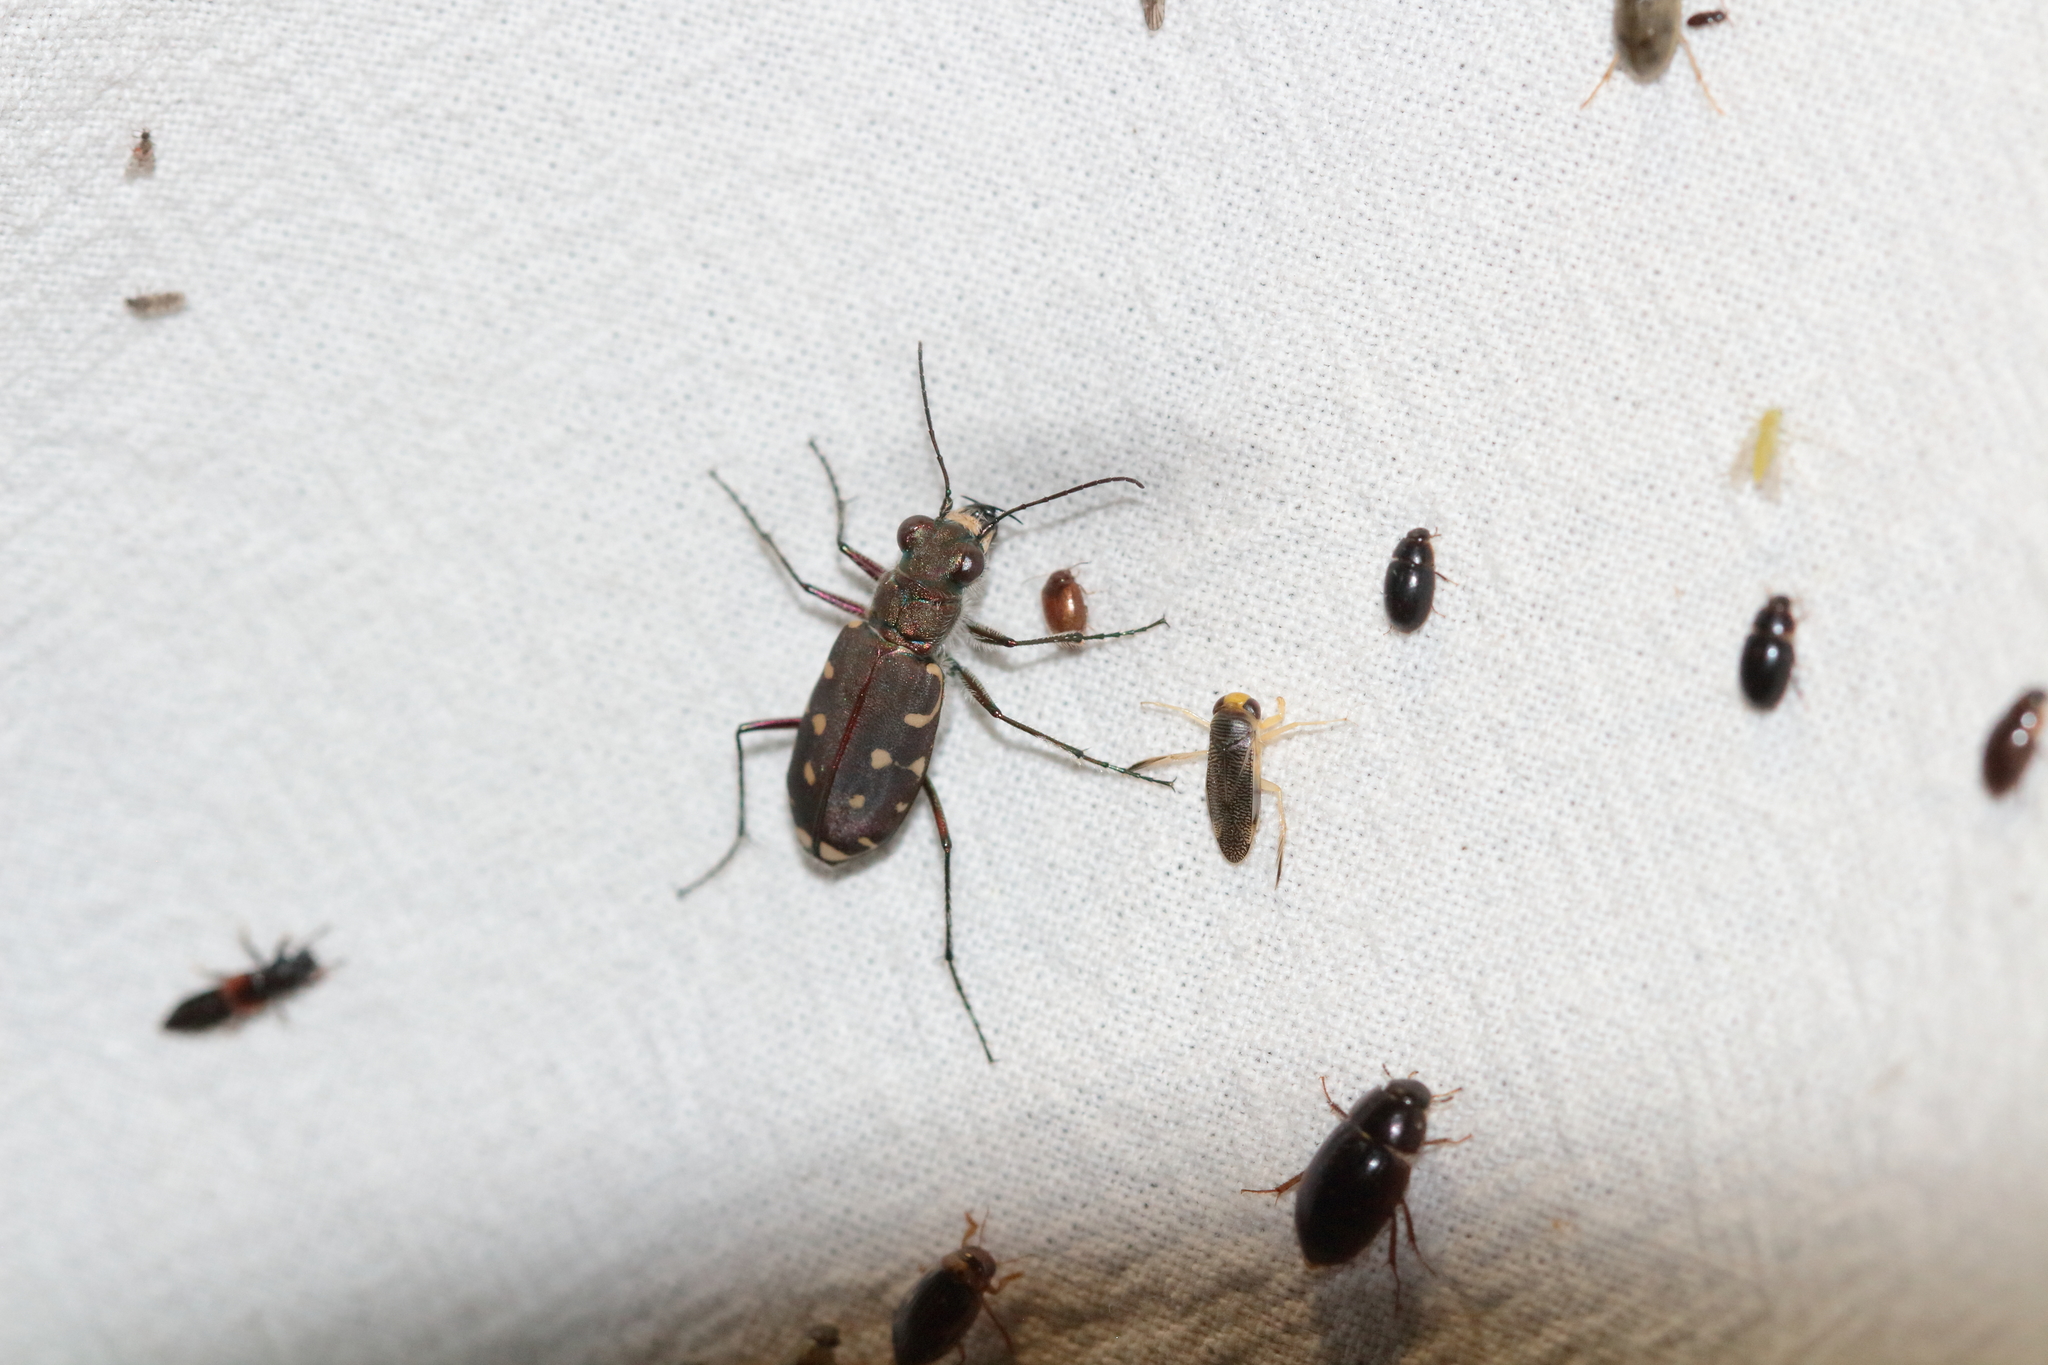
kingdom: Animalia
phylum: Arthropoda
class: Insecta
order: Coleoptera
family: Carabidae
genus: Cicindela
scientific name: Cicindela littoralis
